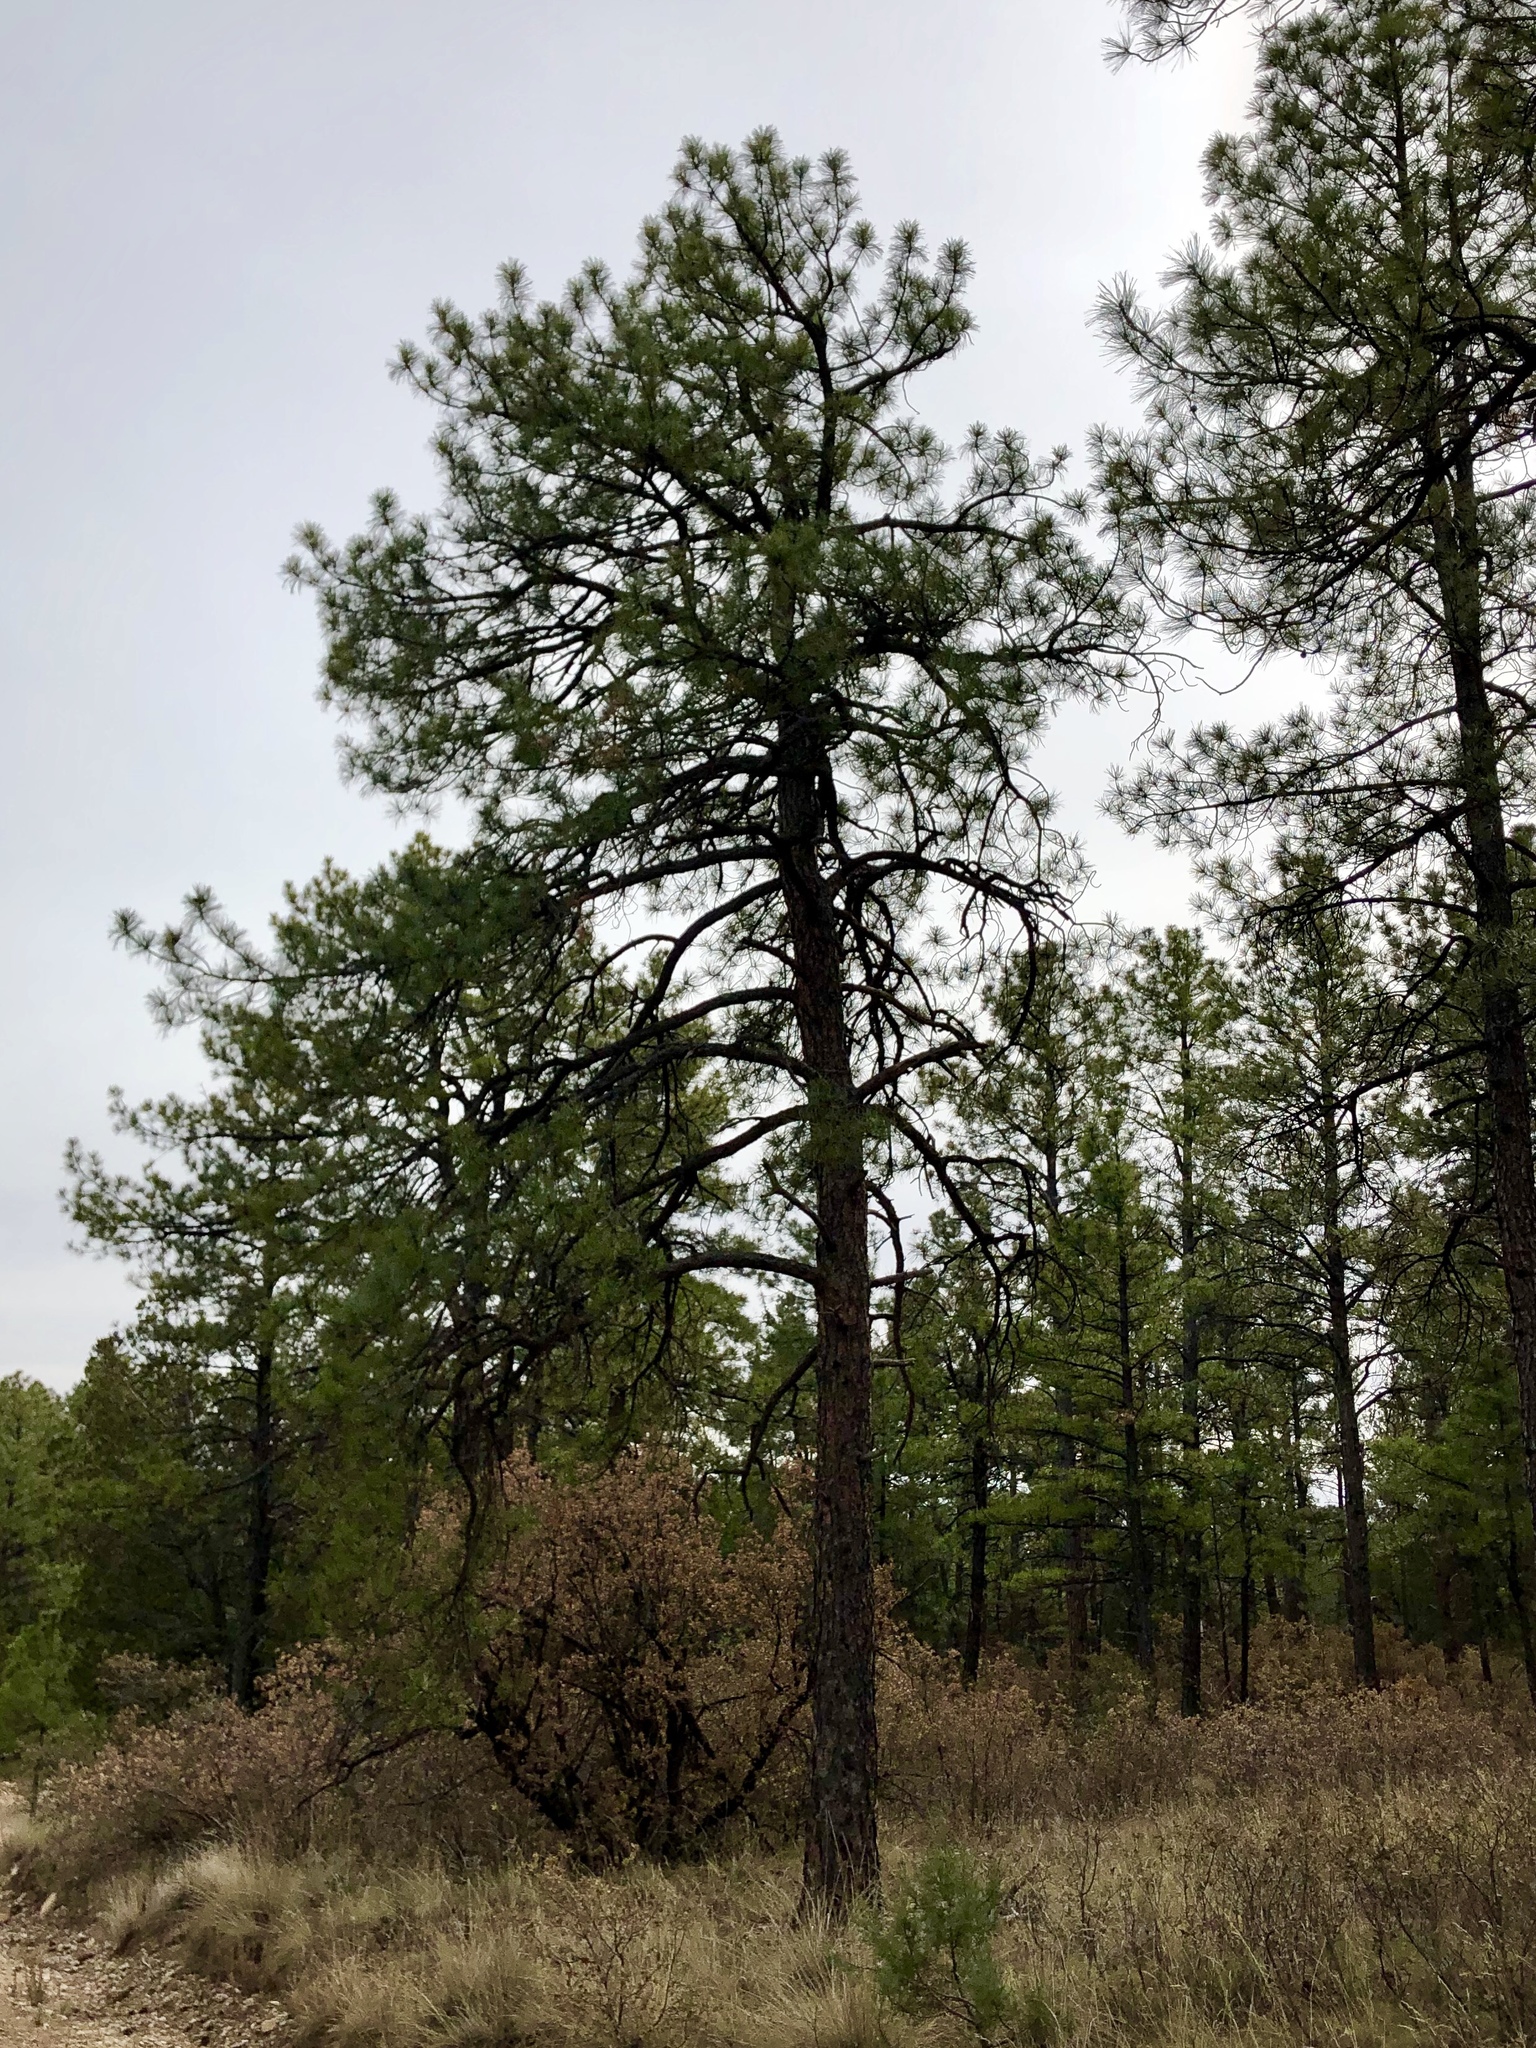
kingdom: Plantae
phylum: Tracheophyta
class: Pinopsida
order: Pinales
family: Pinaceae
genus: Pinus
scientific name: Pinus ponderosa
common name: Western yellow-pine
